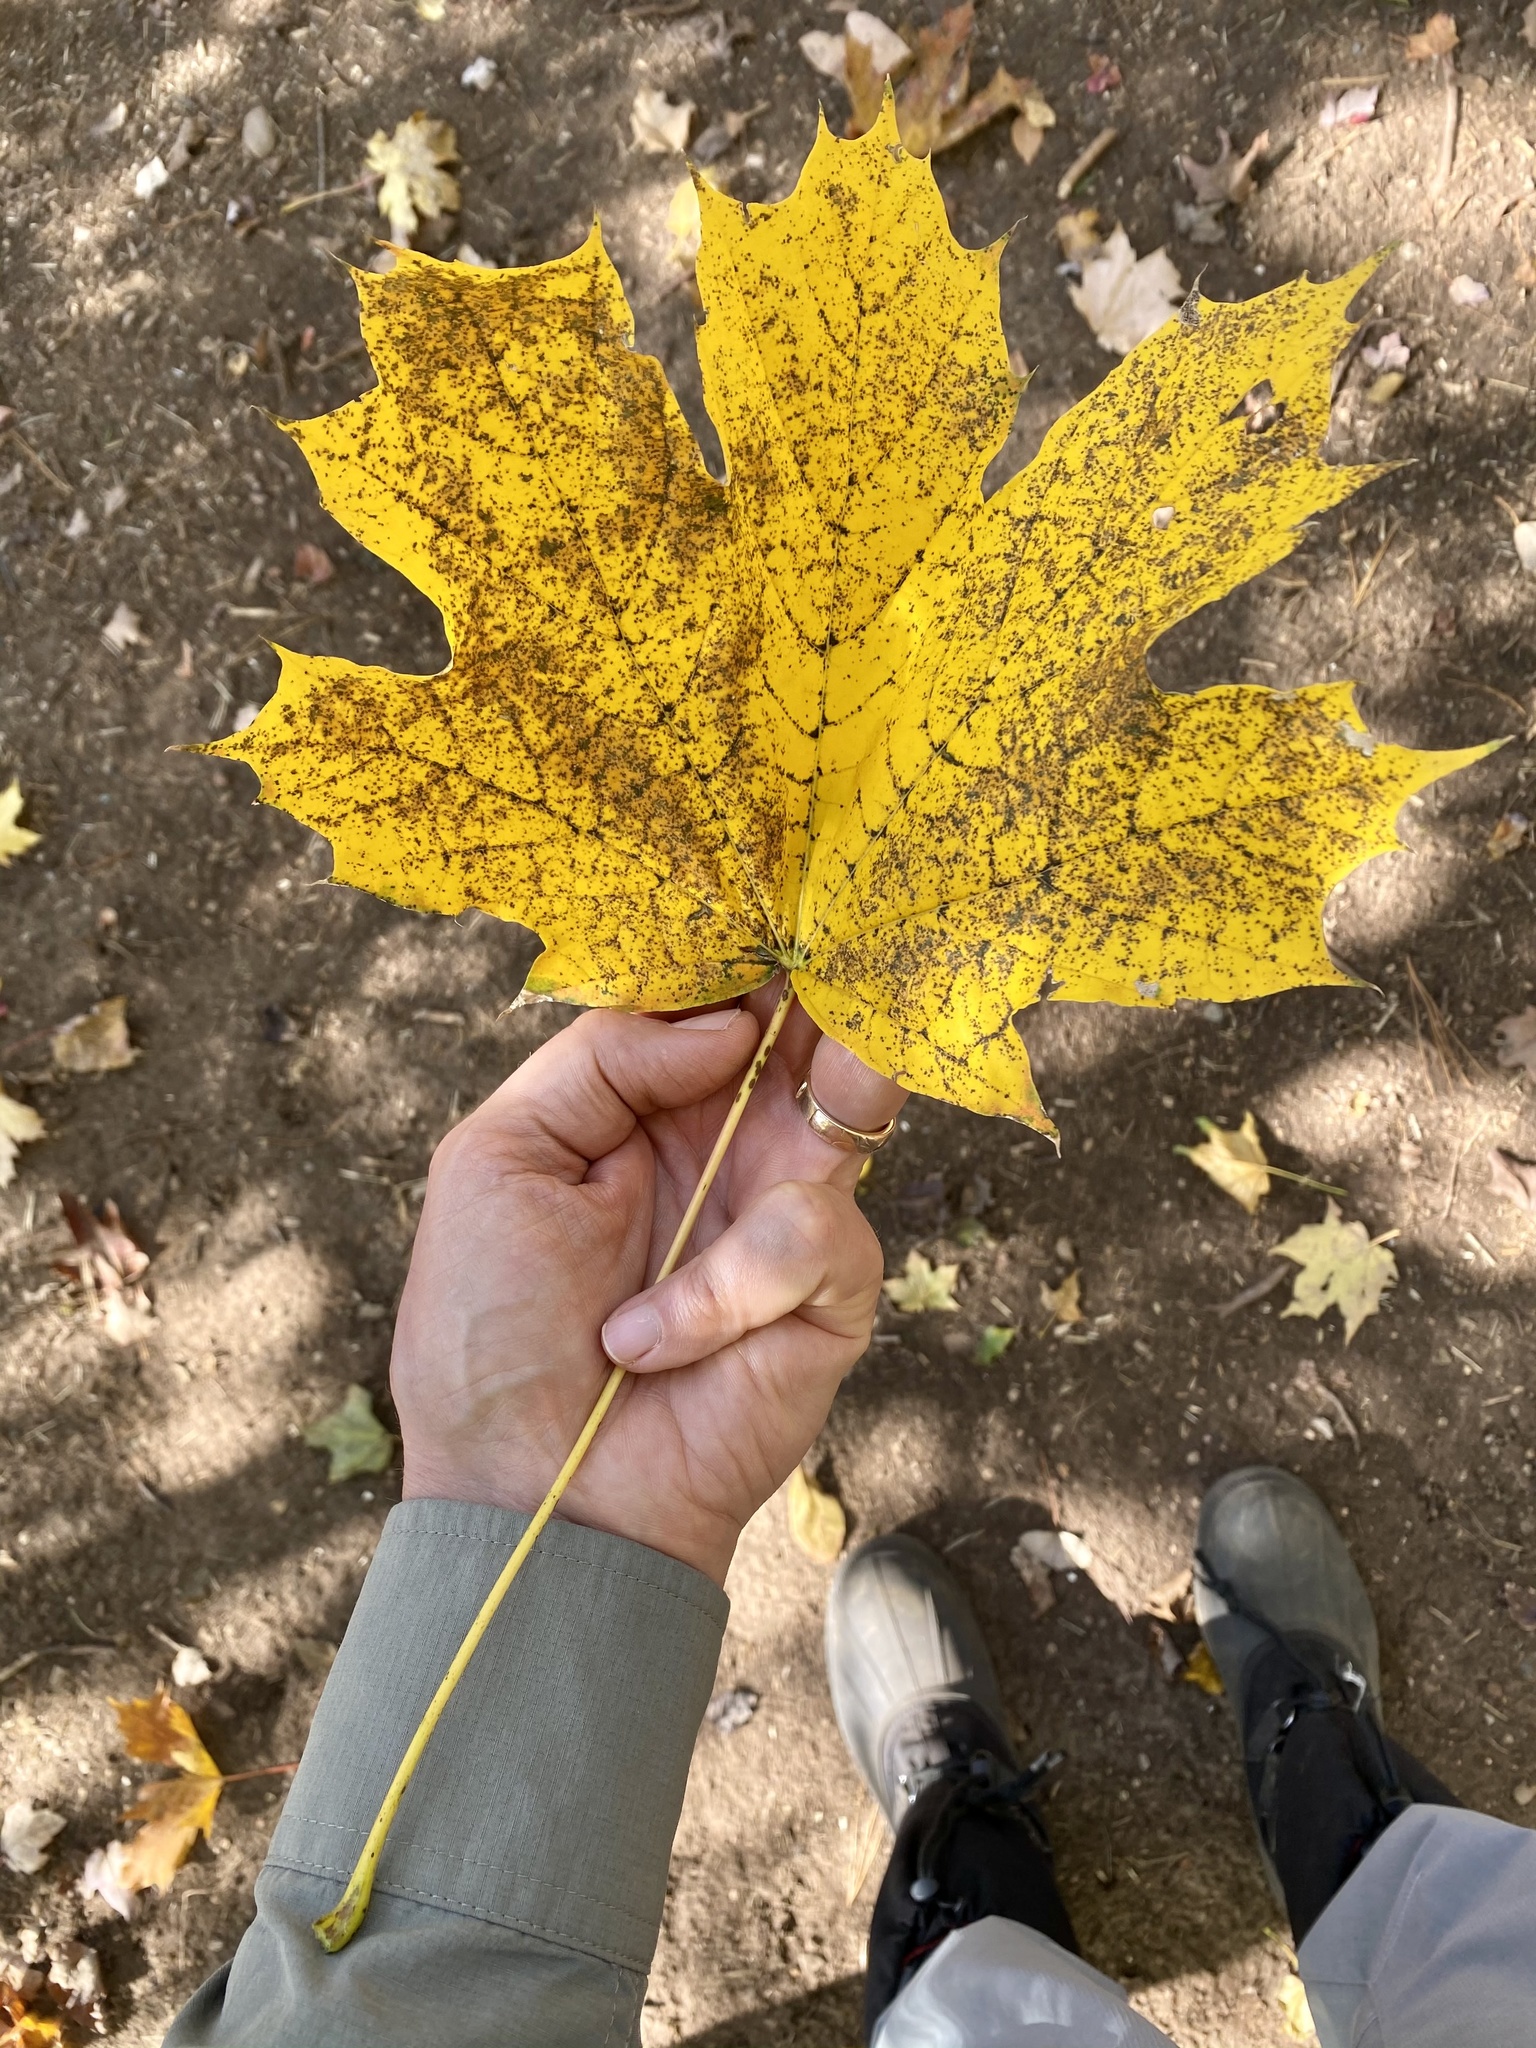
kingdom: Plantae
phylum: Tracheophyta
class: Magnoliopsida
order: Sapindales
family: Sapindaceae
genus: Acer
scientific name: Acer platanoides
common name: Norway maple
